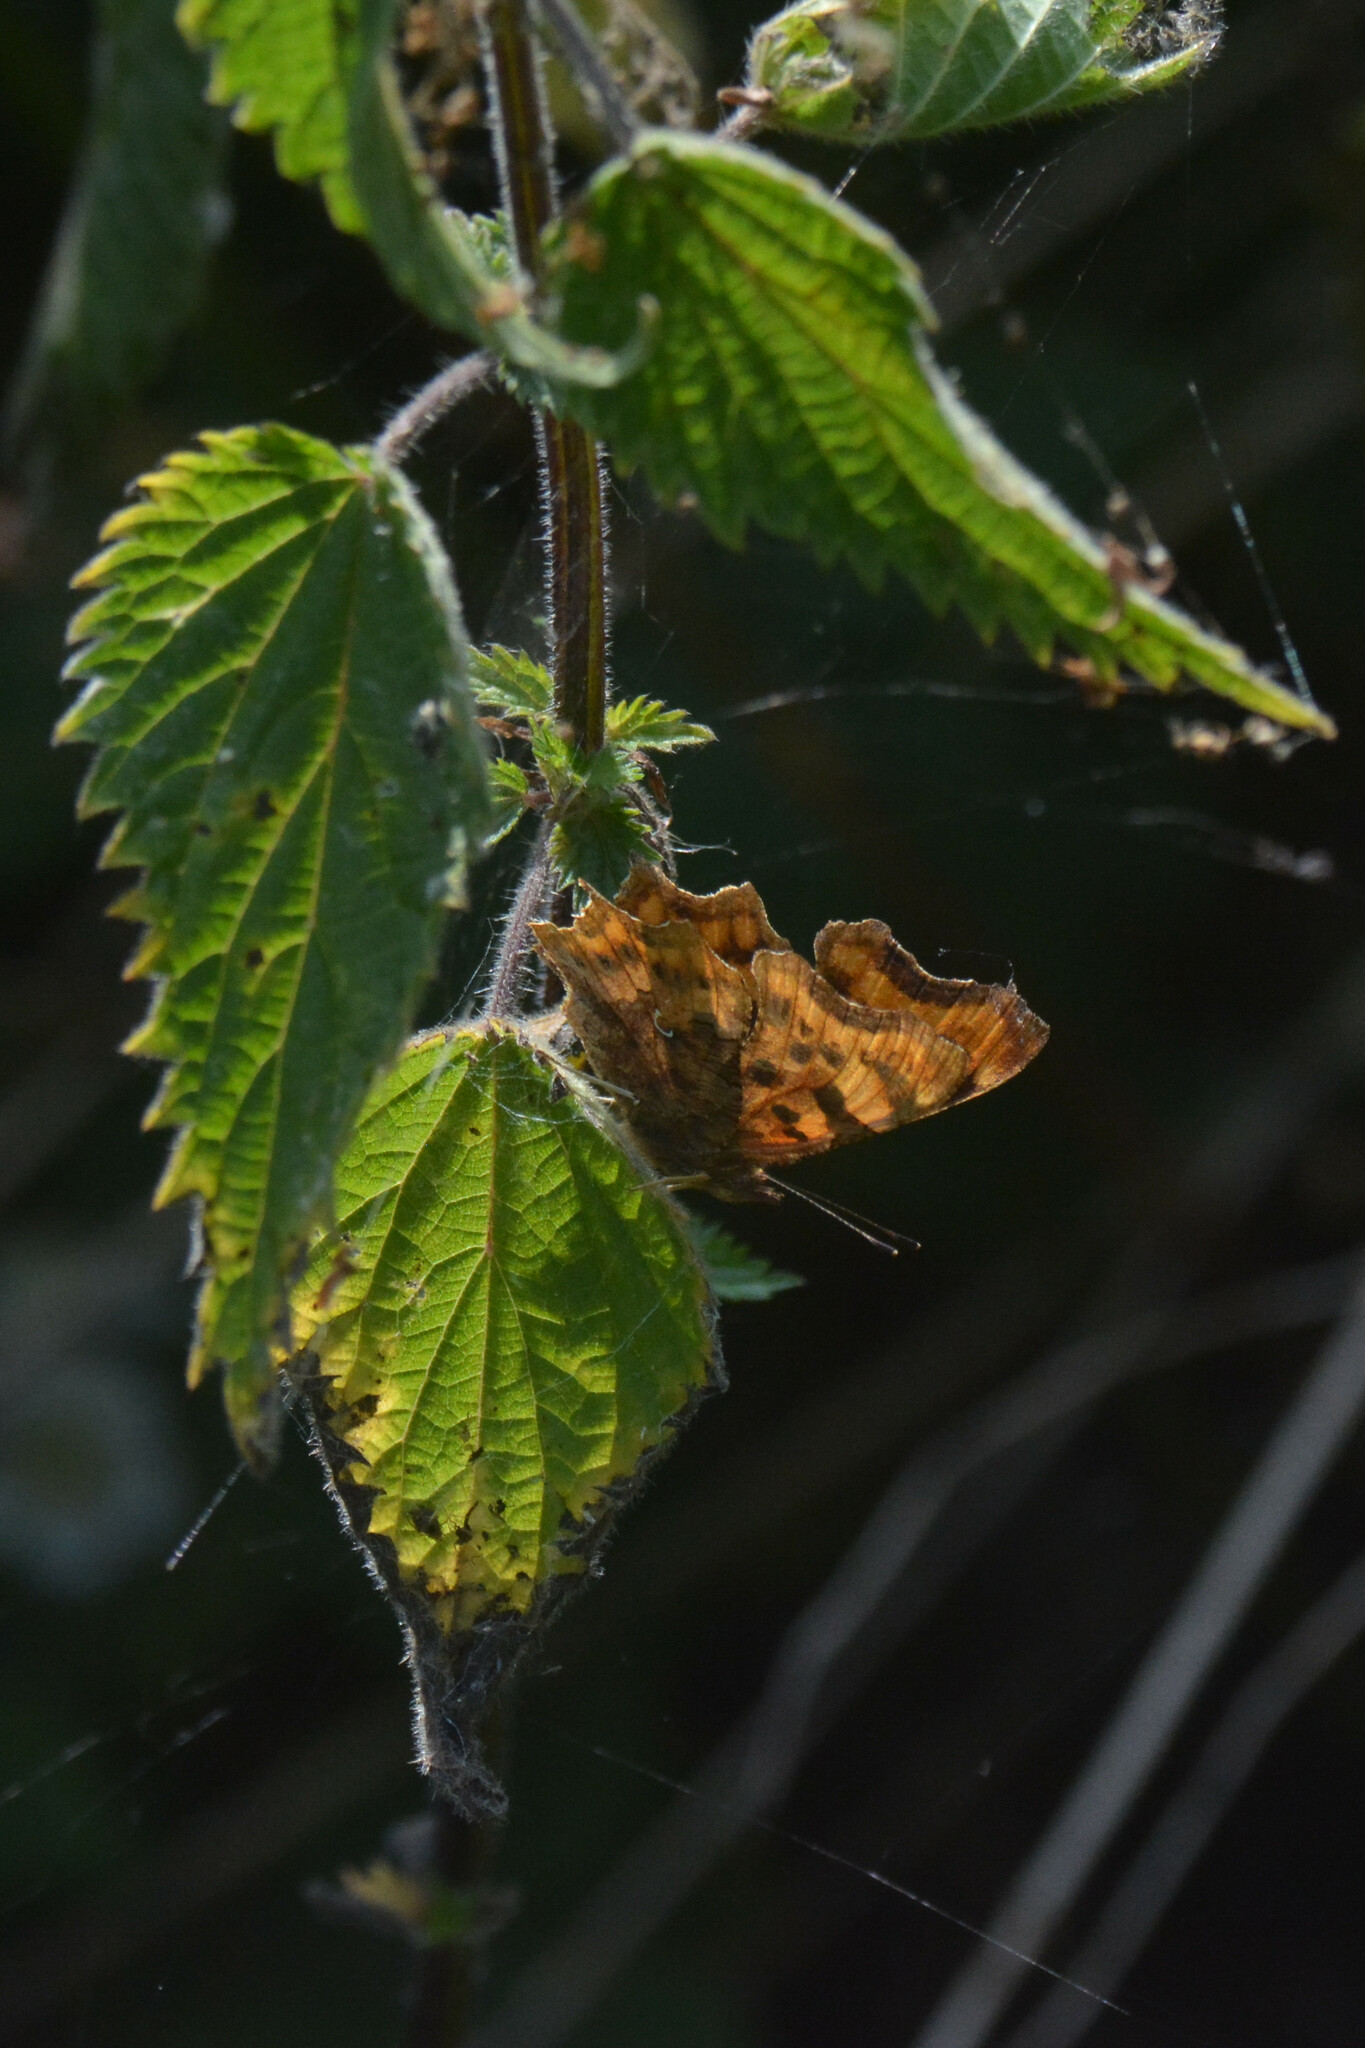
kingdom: Animalia
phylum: Arthropoda
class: Insecta
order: Lepidoptera
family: Nymphalidae
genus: Polygonia
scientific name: Polygonia c-album
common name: Comma
